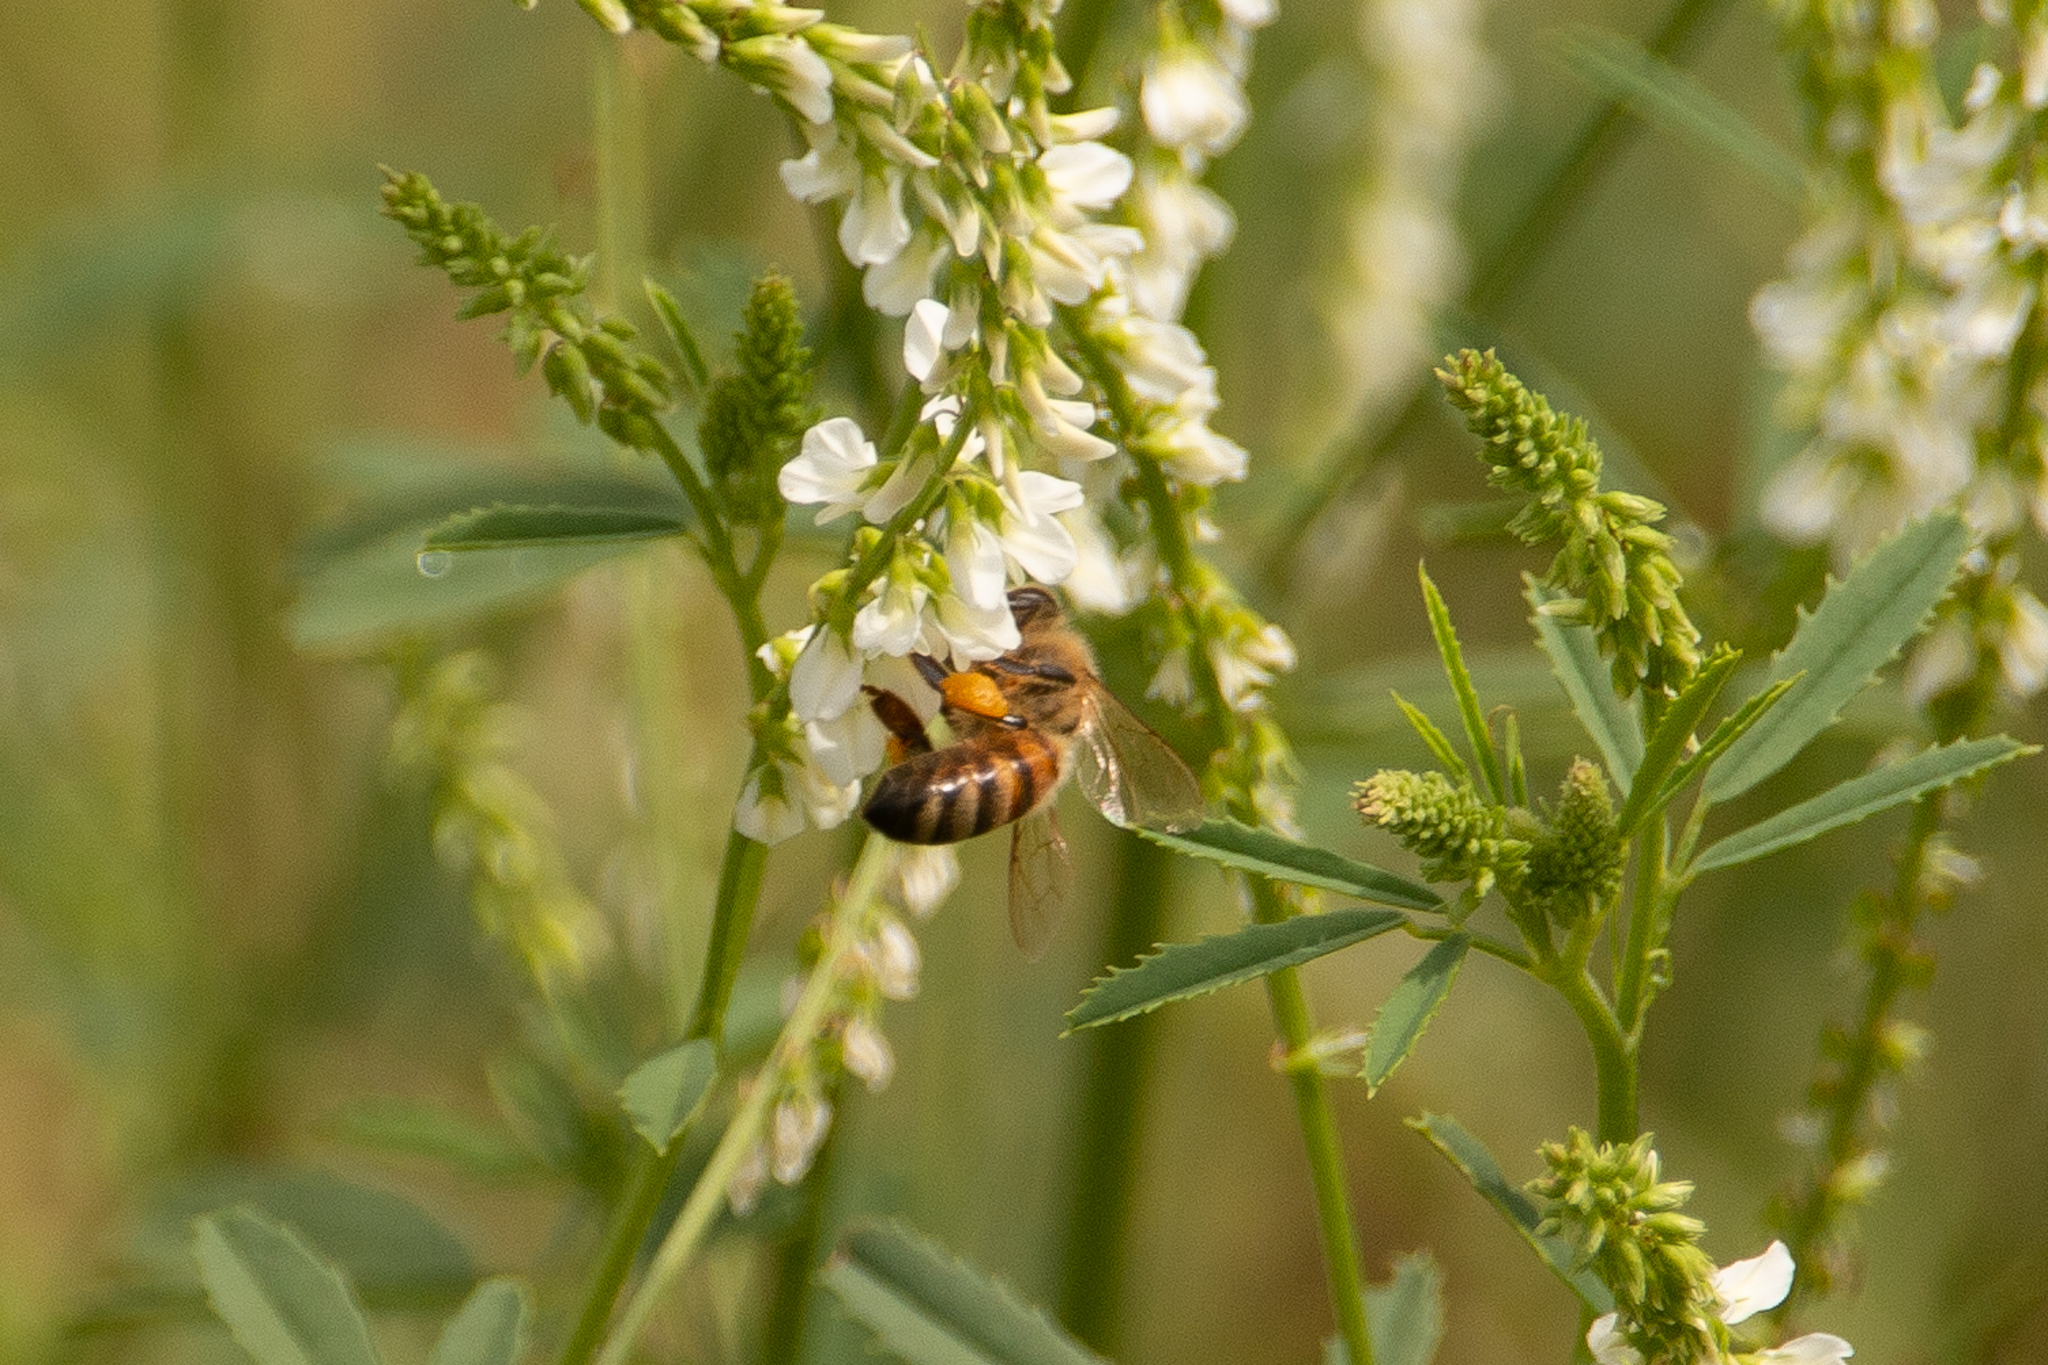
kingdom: Plantae
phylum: Tracheophyta
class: Magnoliopsida
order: Fabales
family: Fabaceae
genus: Melilotus
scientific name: Melilotus albus
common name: White melilot
